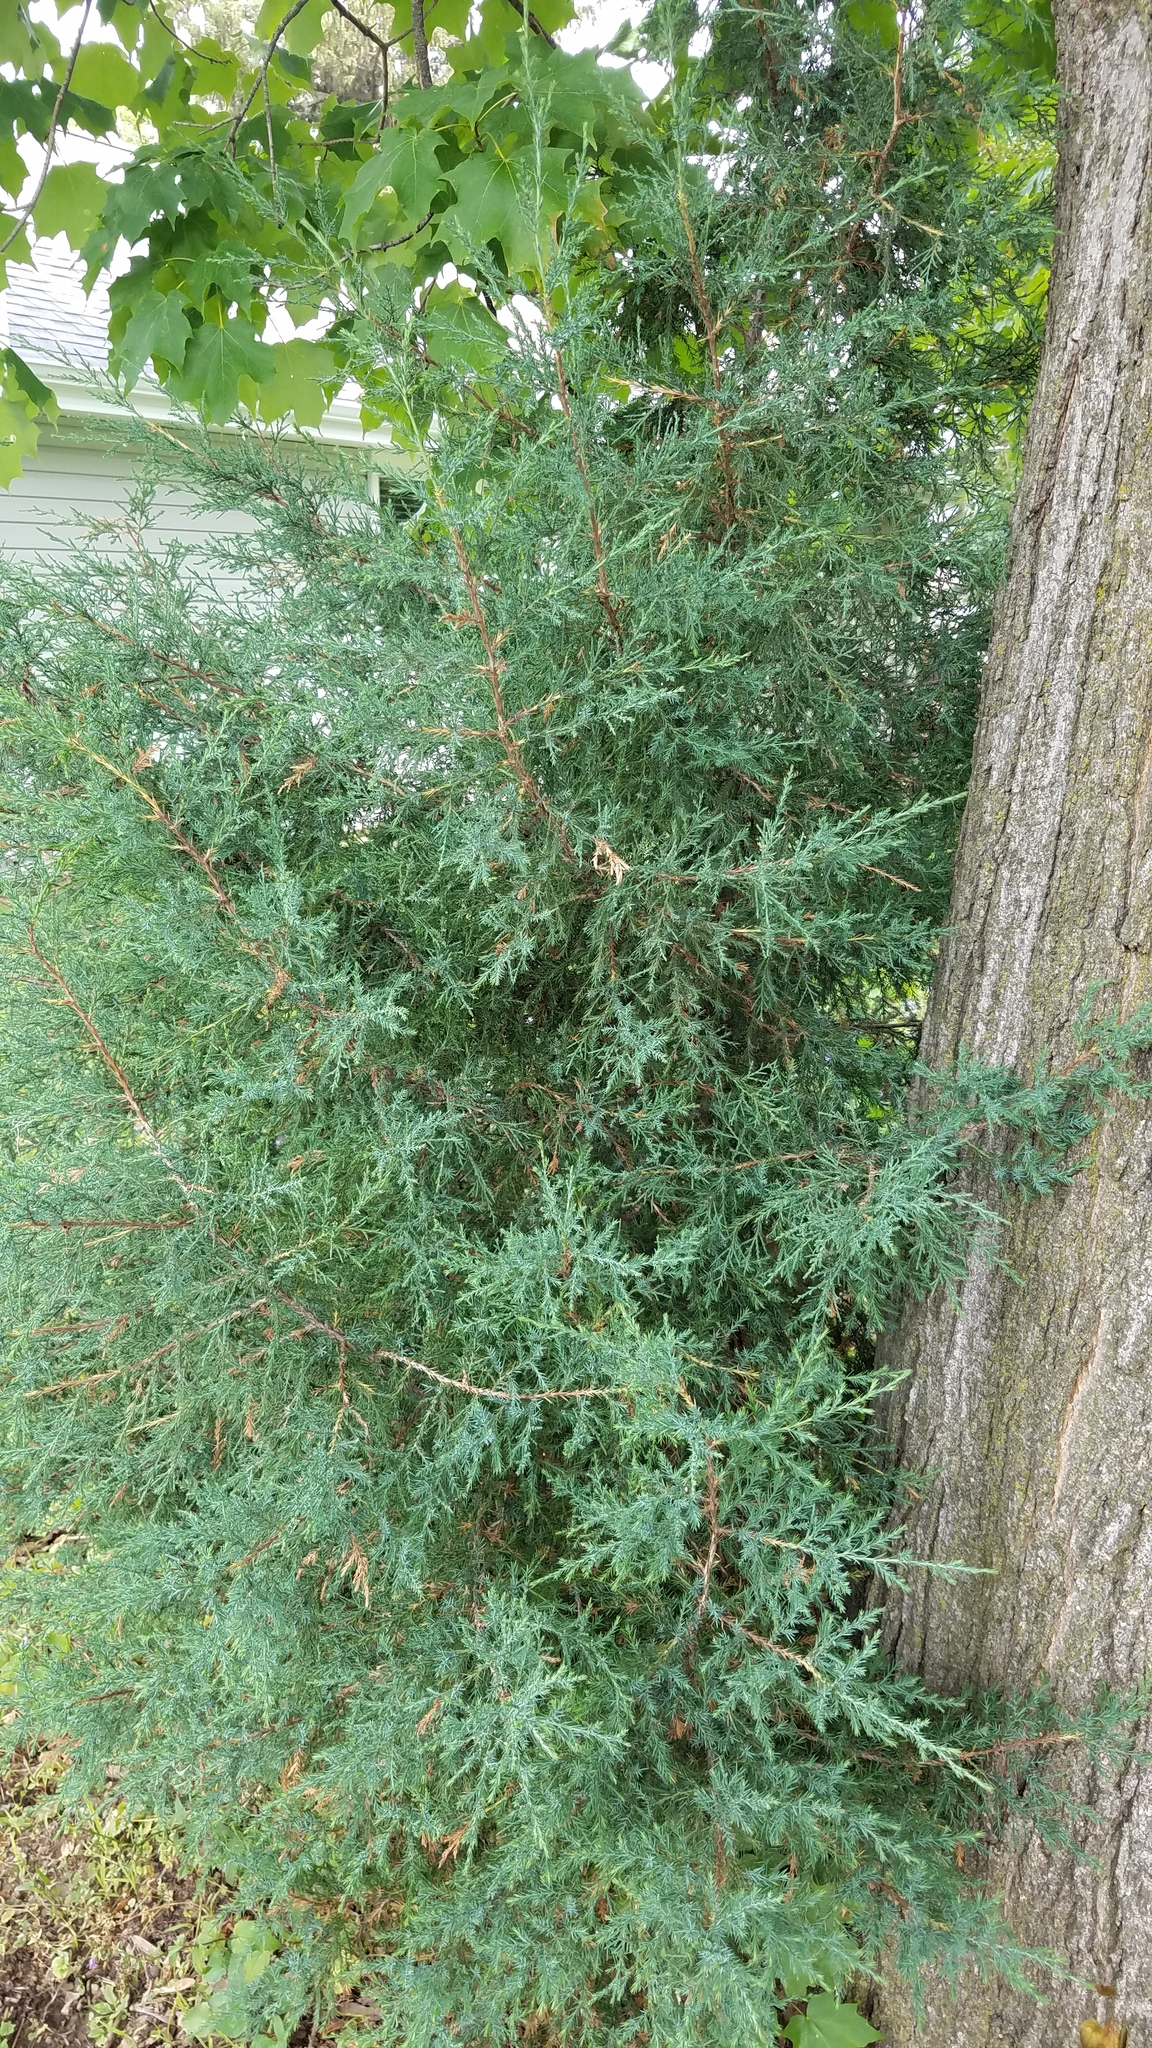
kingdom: Plantae
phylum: Tracheophyta
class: Pinopsida
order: Pinales
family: Cupressaceae
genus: Juniperus
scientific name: Juniperus virginiana
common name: Red juniper
